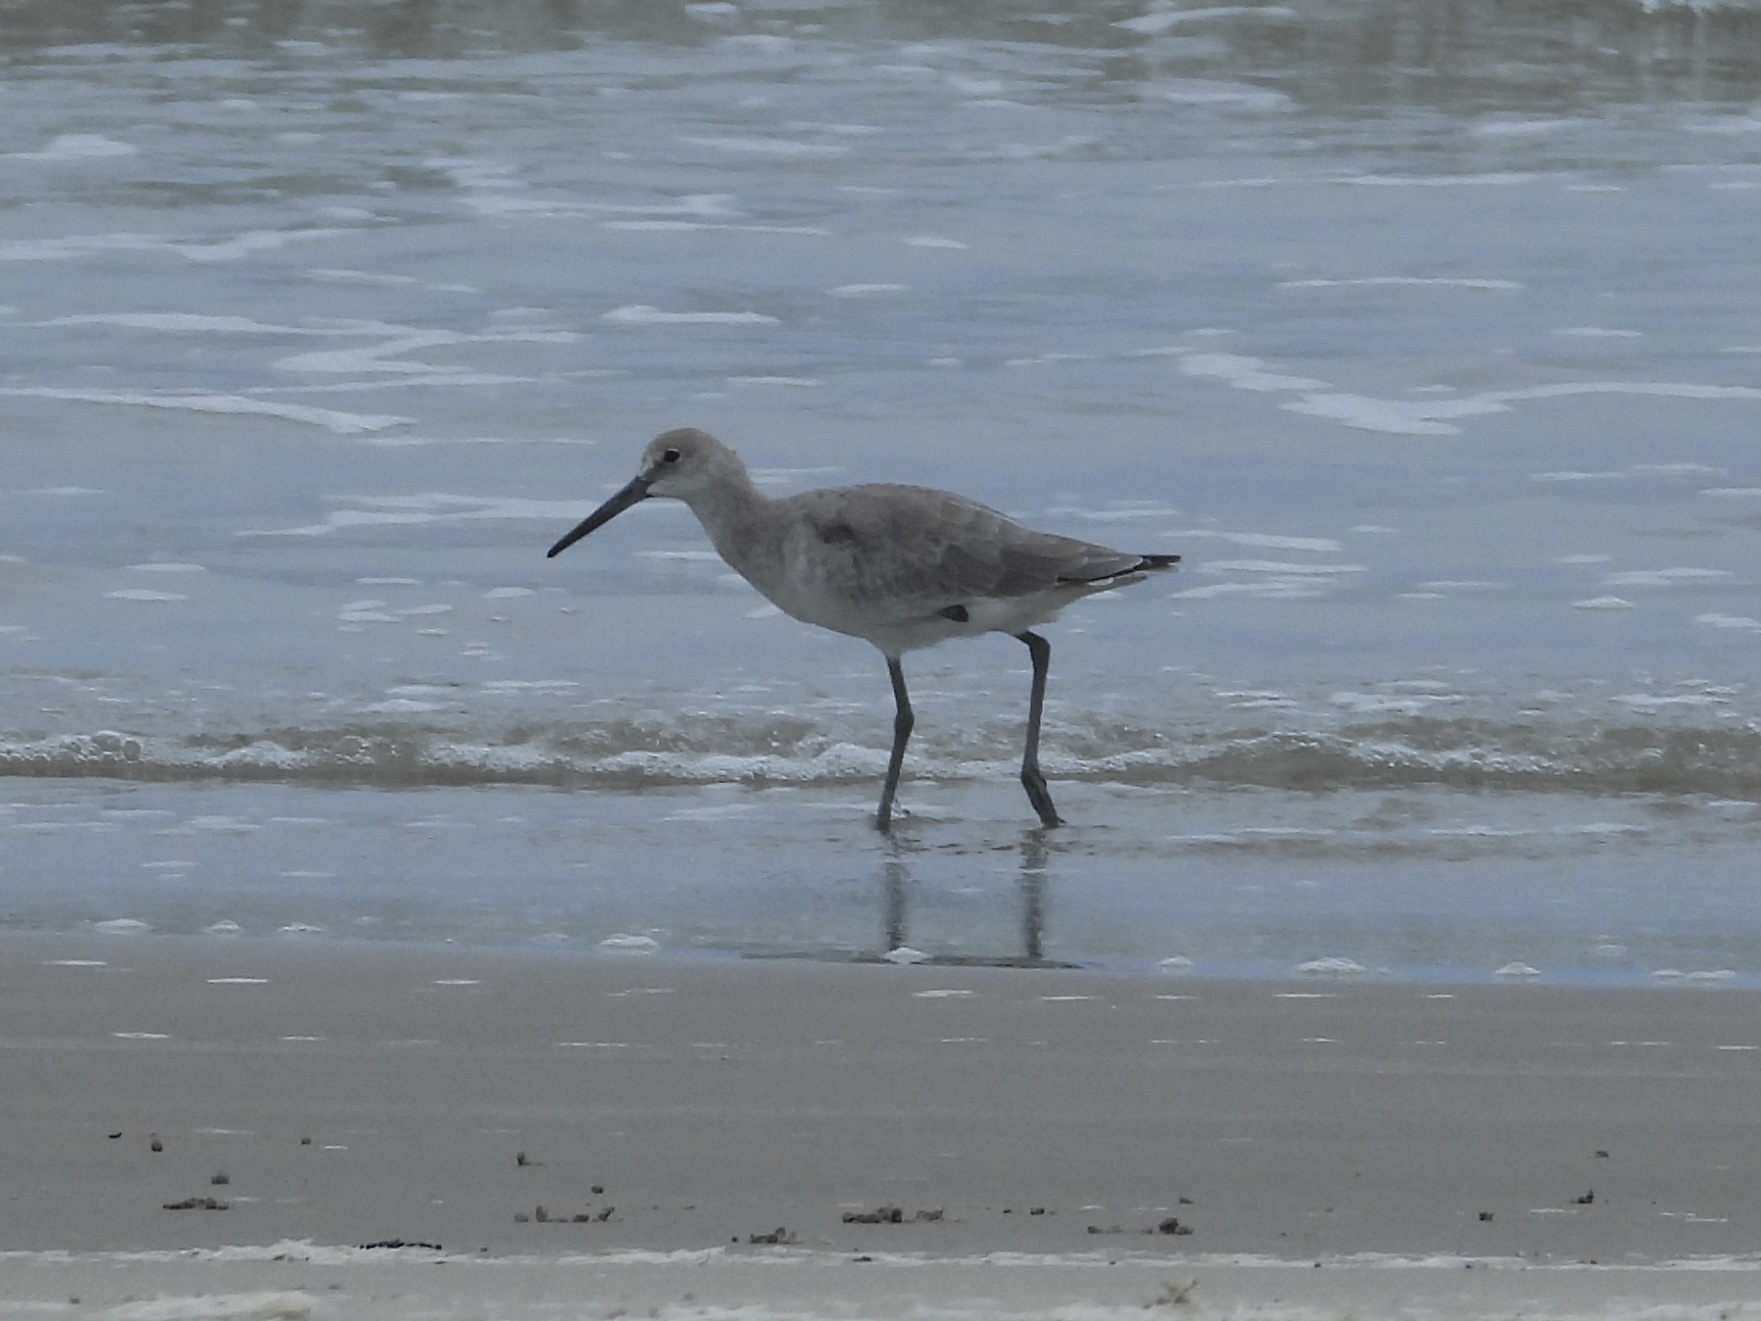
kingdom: Animalia
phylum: Chordata
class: Aves
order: Charadriiformes
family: Scolopacidae
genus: Tringa
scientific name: Tringa semipalmata
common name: Willet
